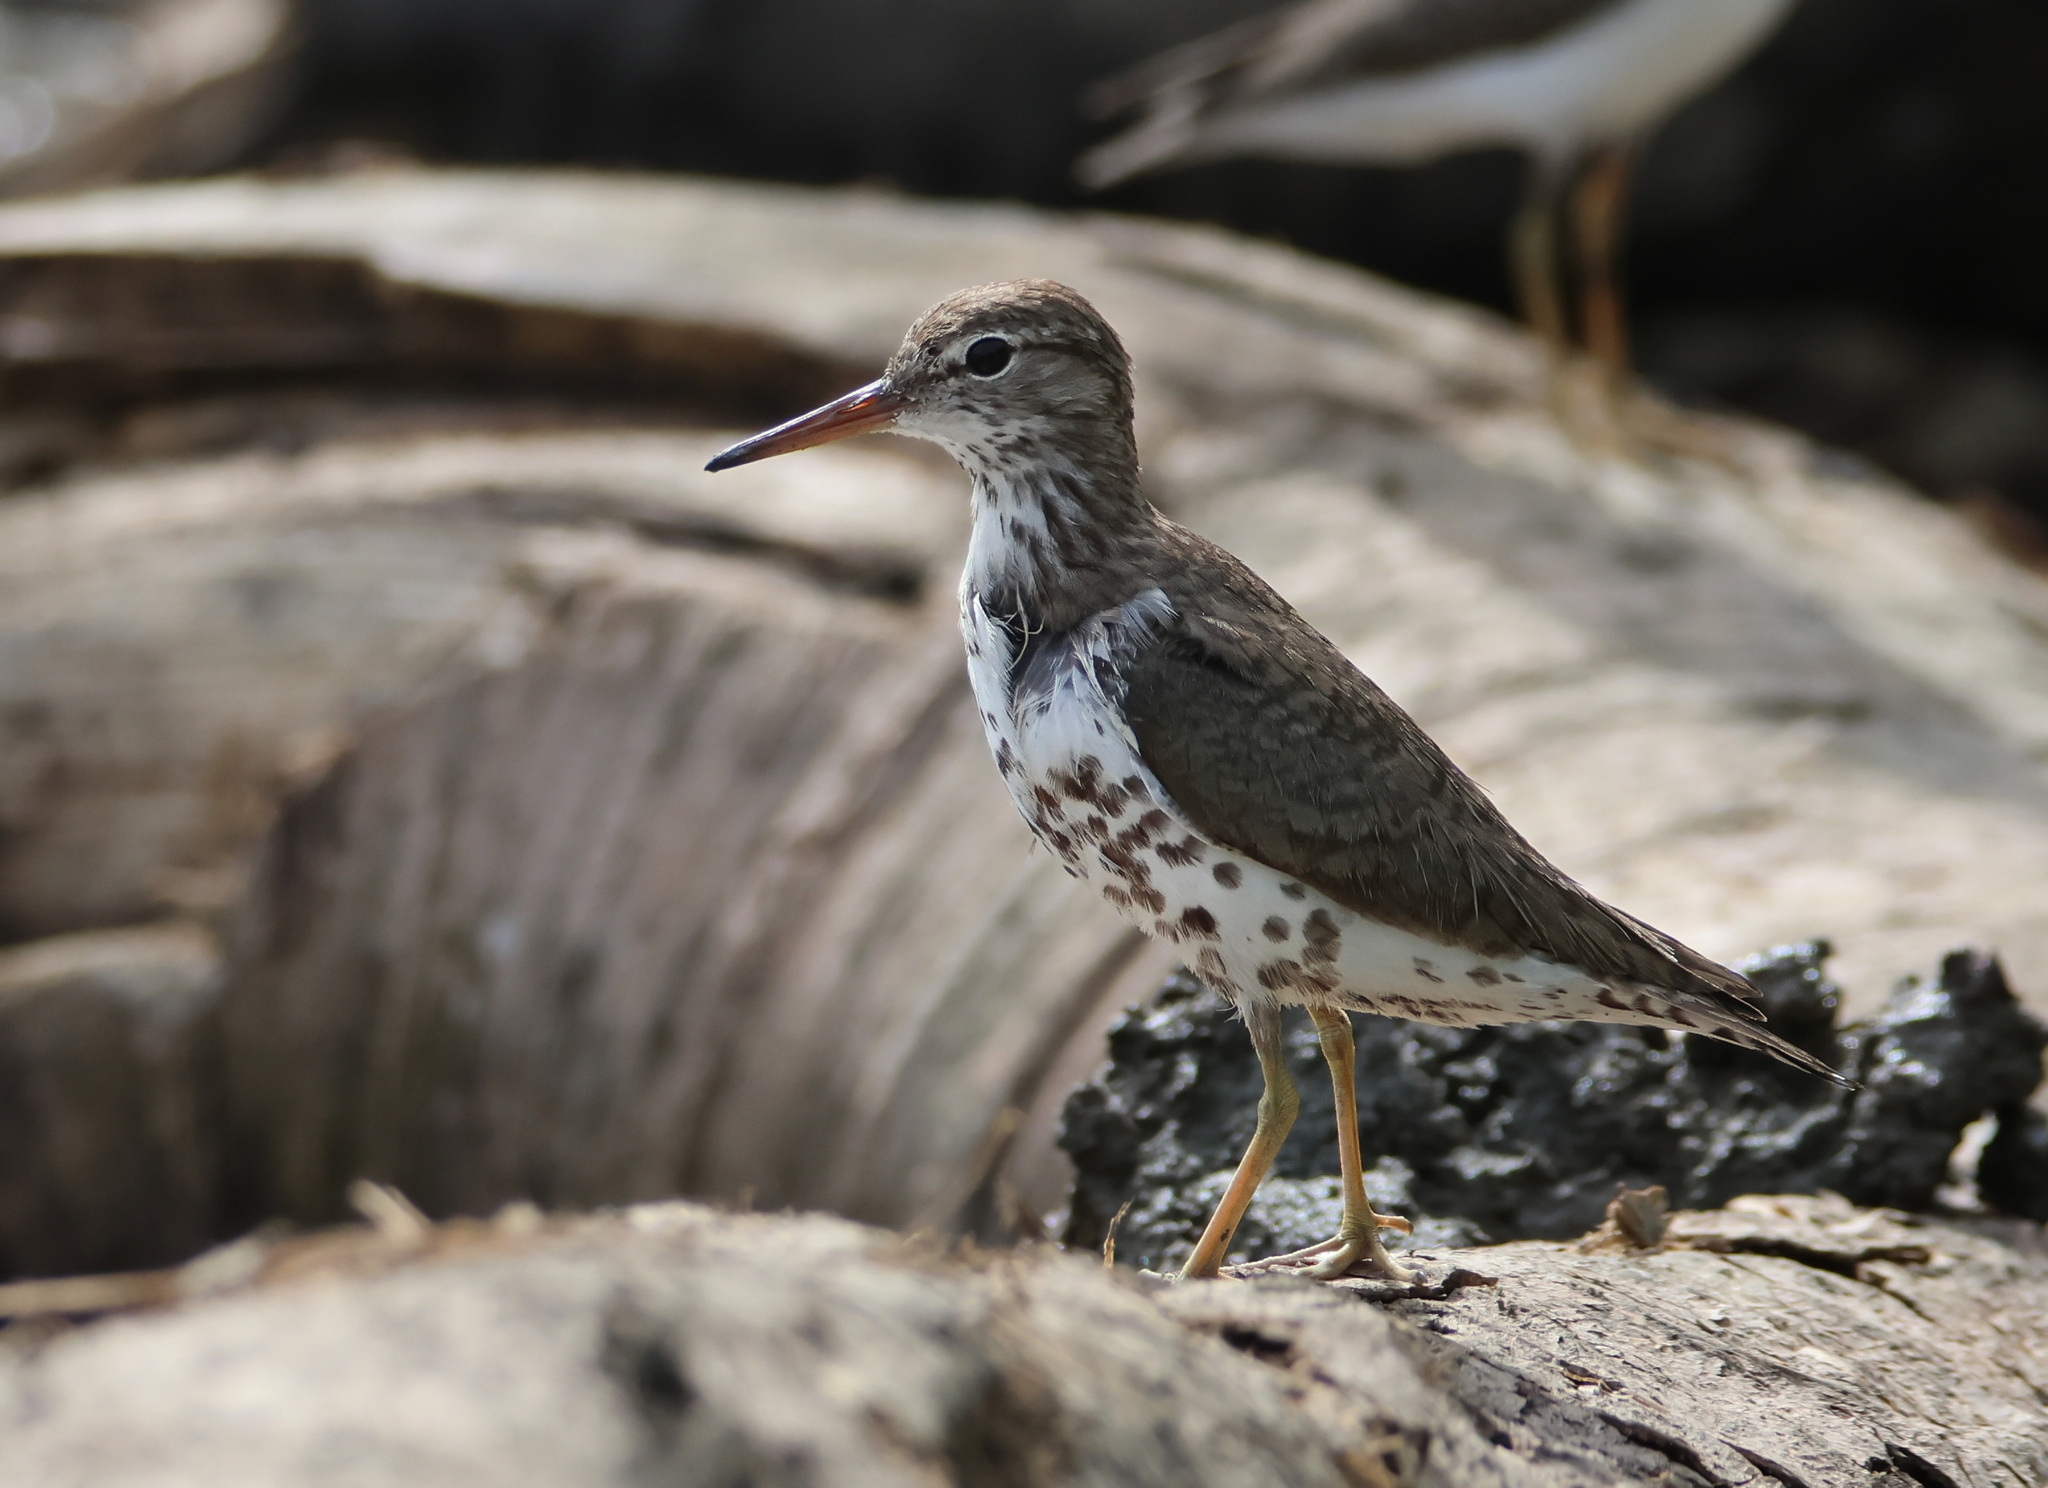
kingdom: Animalia
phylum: Chordata
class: Aves
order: Charadriiformes
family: Scolopacidae
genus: Actitis
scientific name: Actitis macularius
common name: Spotted sandpiper
